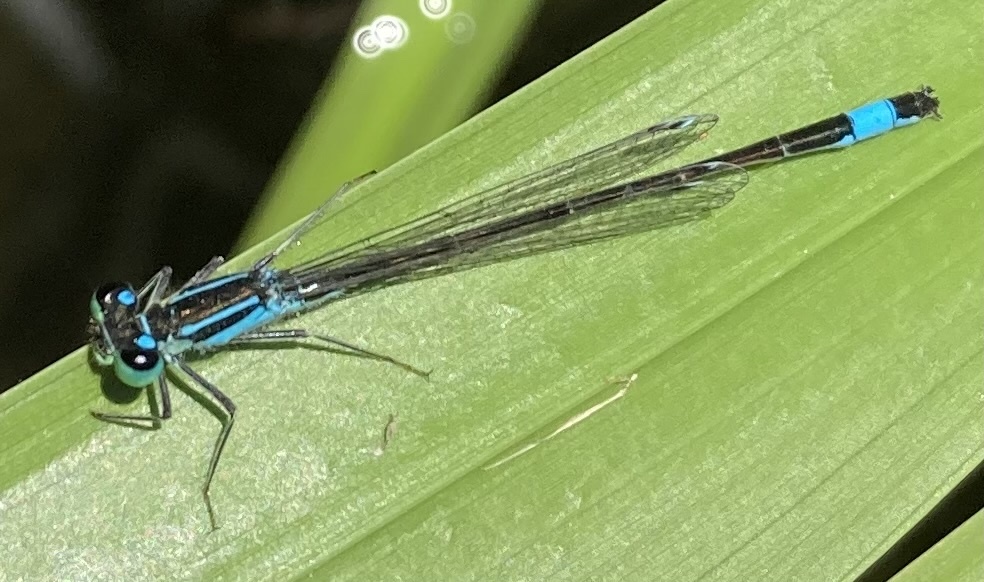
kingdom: Animalia
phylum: Arthropoda
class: Insecta
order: Odonata
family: Coenagrionidae
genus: Ischnura
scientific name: Ischnura elegans
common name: Blue-tailed damselfly
